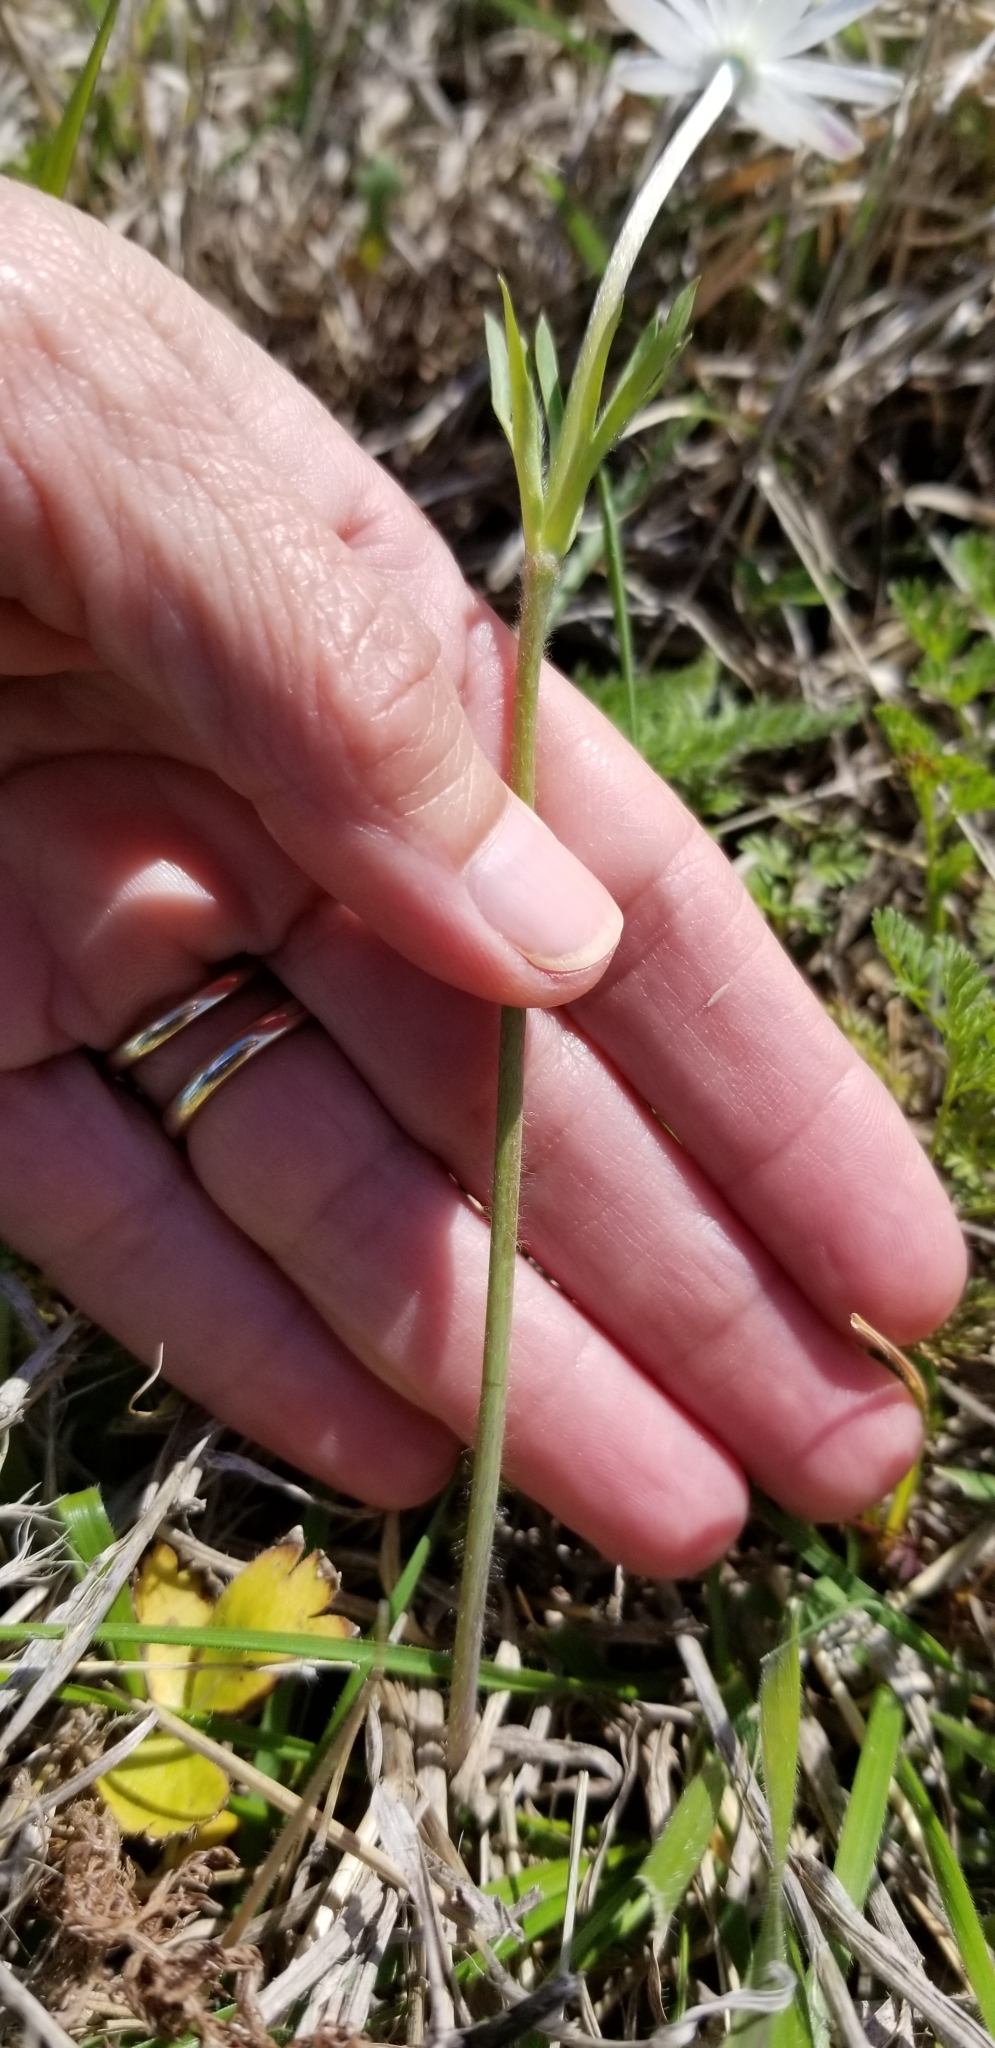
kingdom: Plantae
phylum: Tracheophyta
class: Magnoliopsida
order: Ranunculales
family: Ranunculaceae
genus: Anemone
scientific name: Anemone berlandieri
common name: Ten-petal anemone
